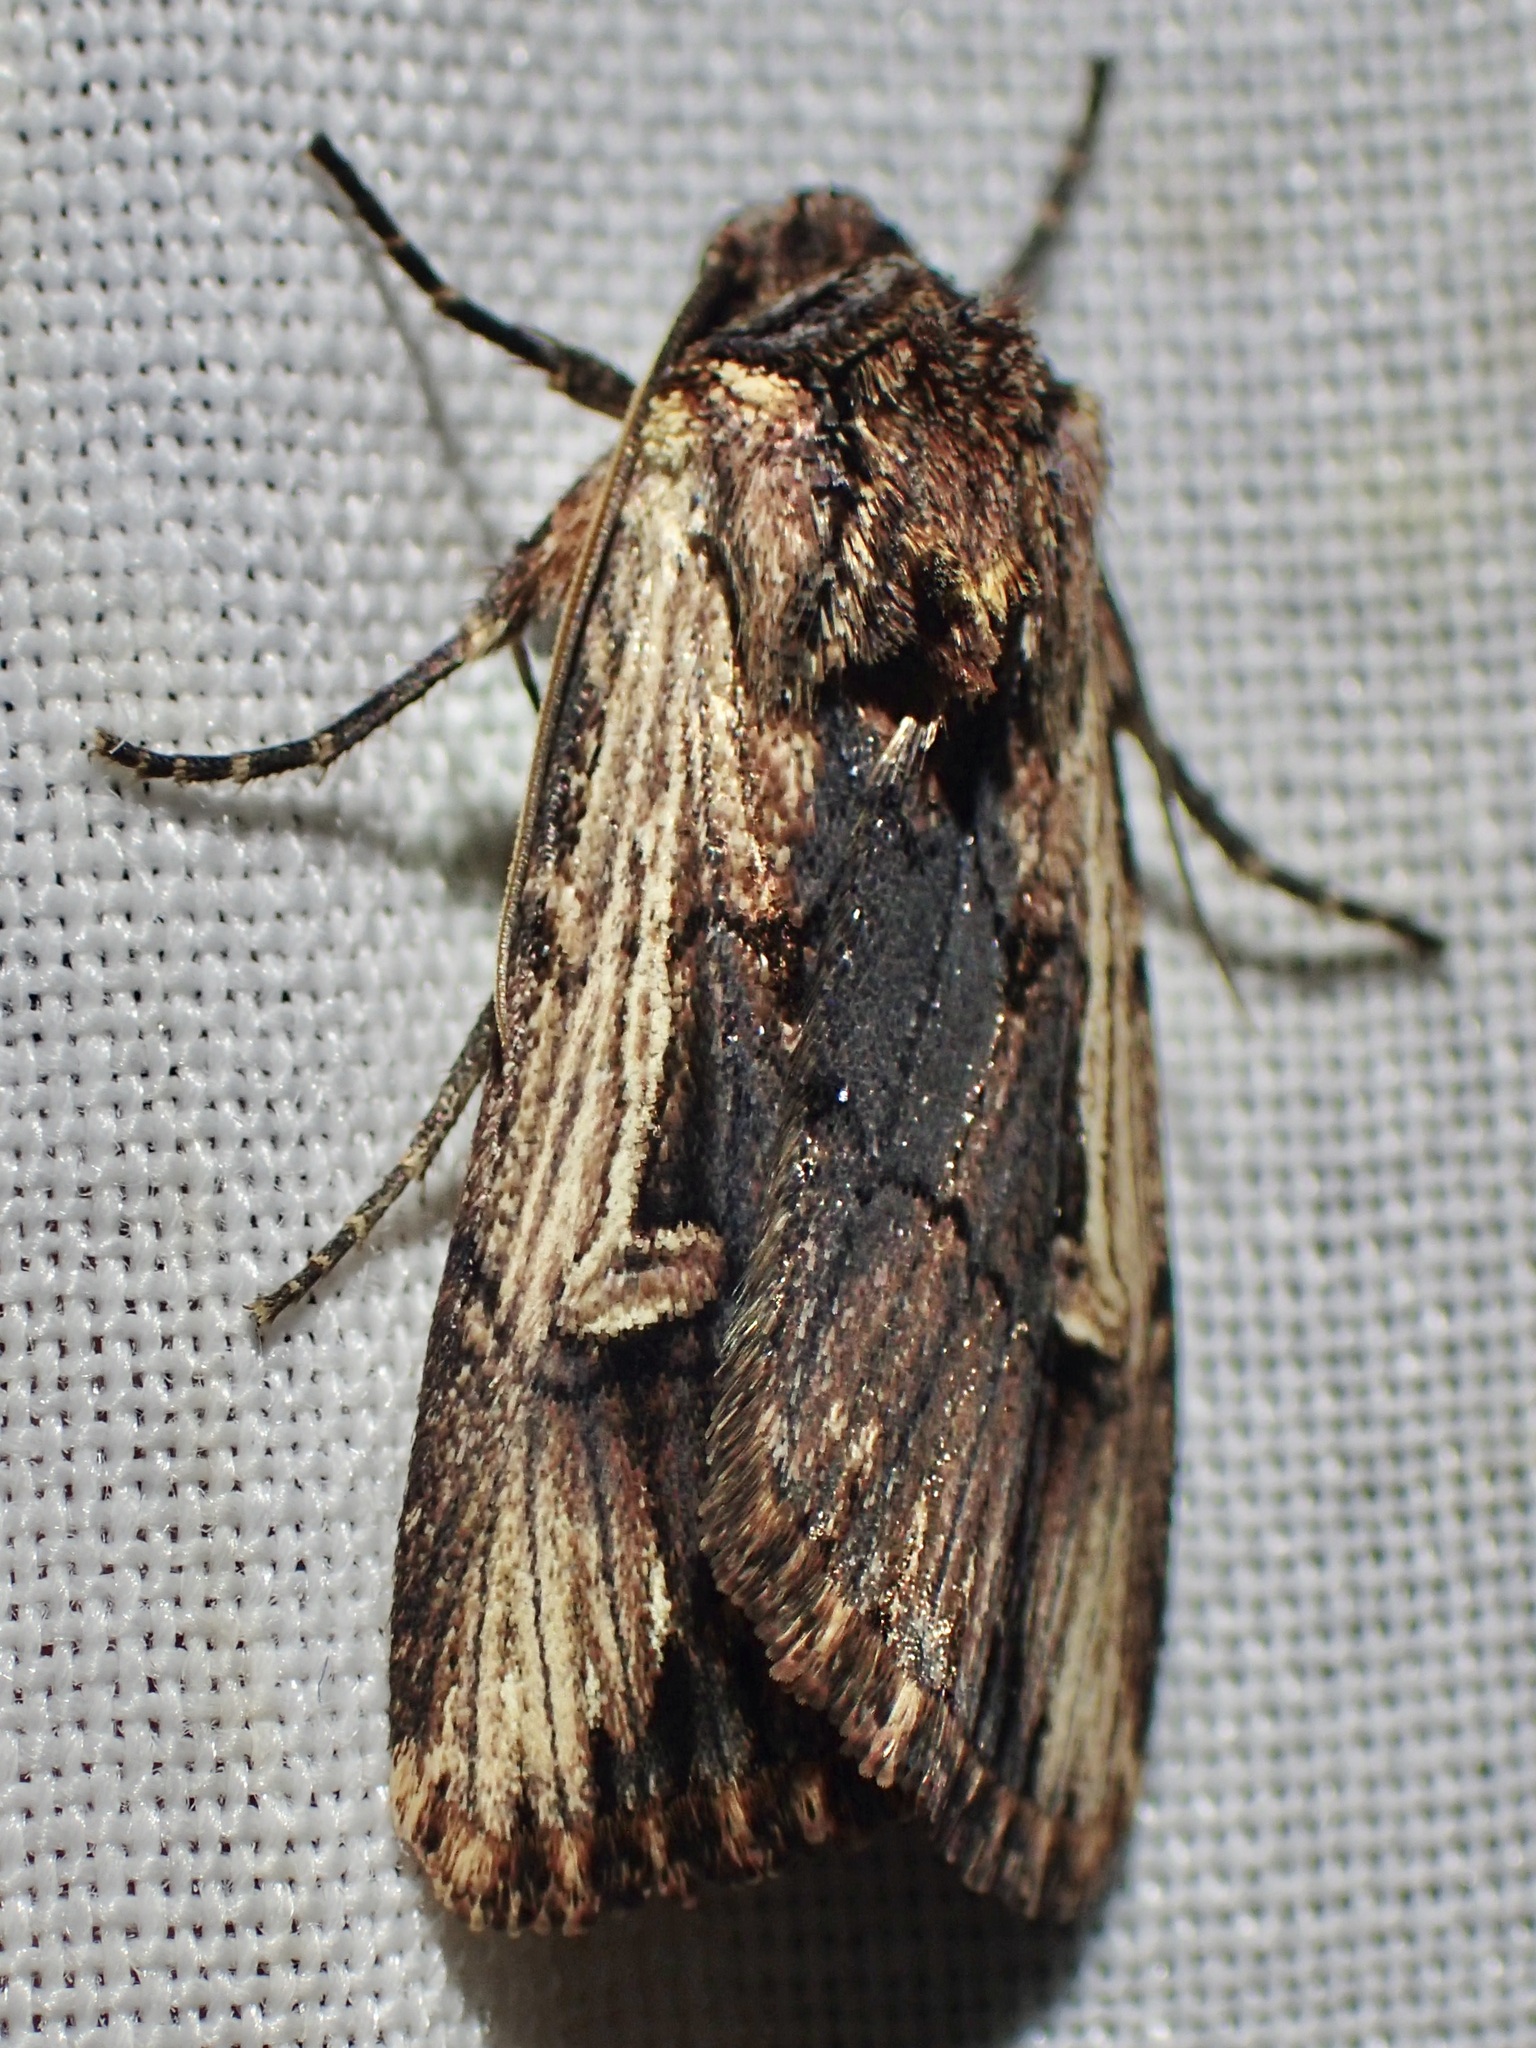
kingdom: Animalia
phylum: Arthropoda
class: Insecta
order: Lepidoptera
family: Noctuidae
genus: Dichagyris
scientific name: Dichagyris cataclivis
